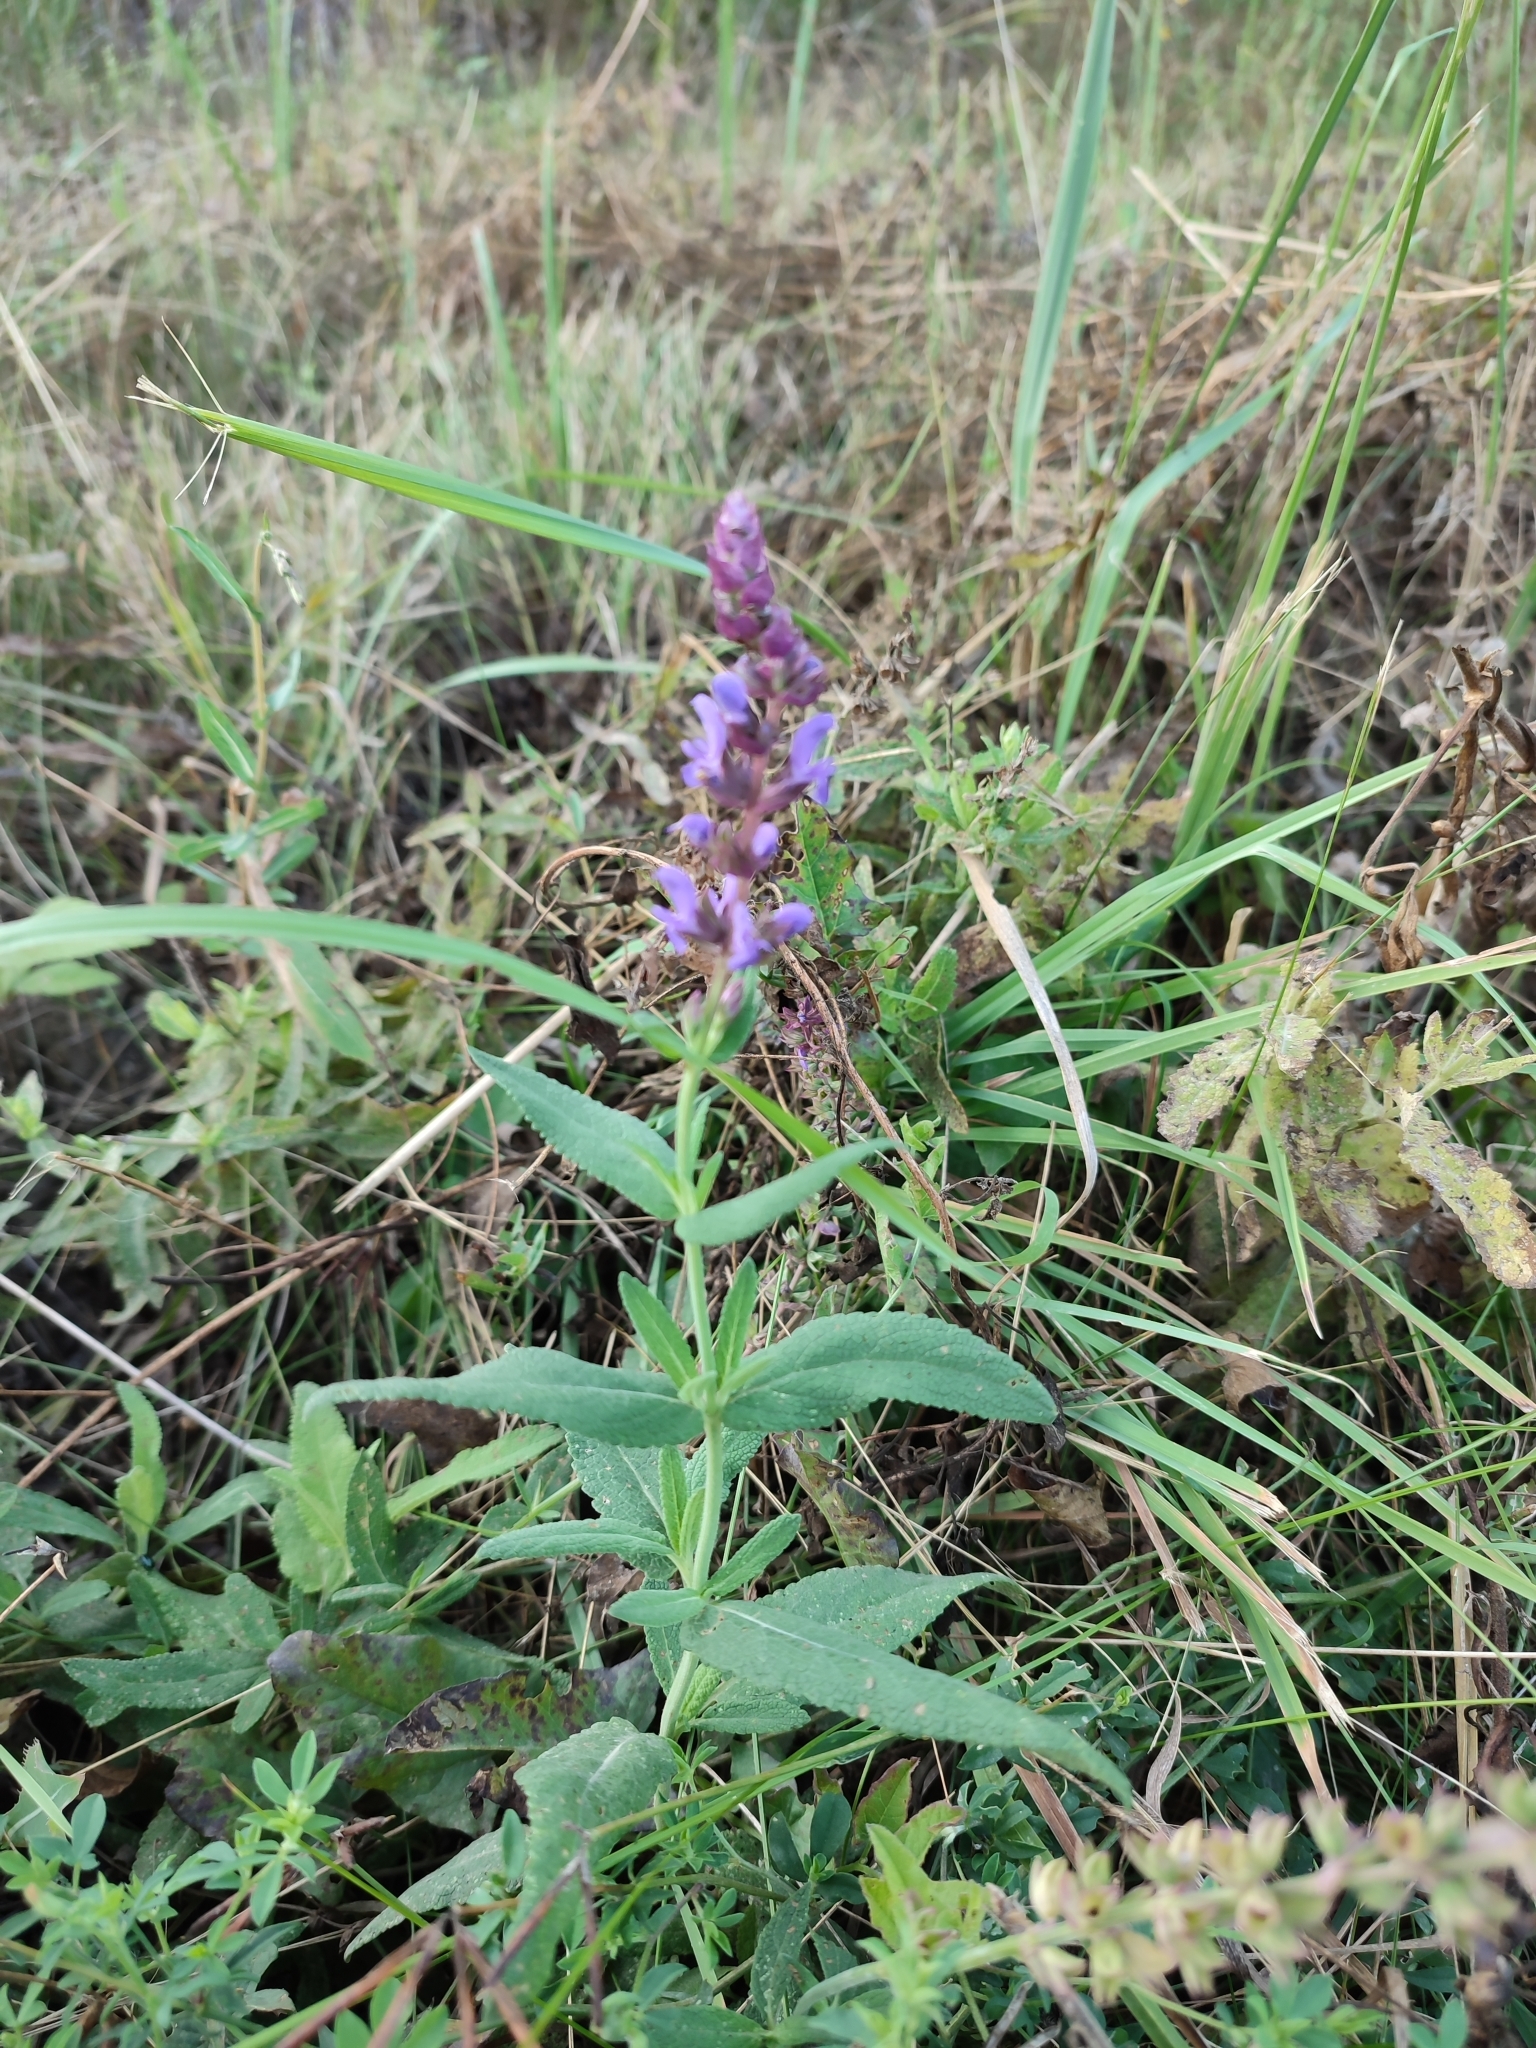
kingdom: Plantae
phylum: Tracheophyta
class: Magnoliopsida
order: Lamiales
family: Lamiaceae
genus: Salvia
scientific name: Salvia nemorosa
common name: Balkan clary
